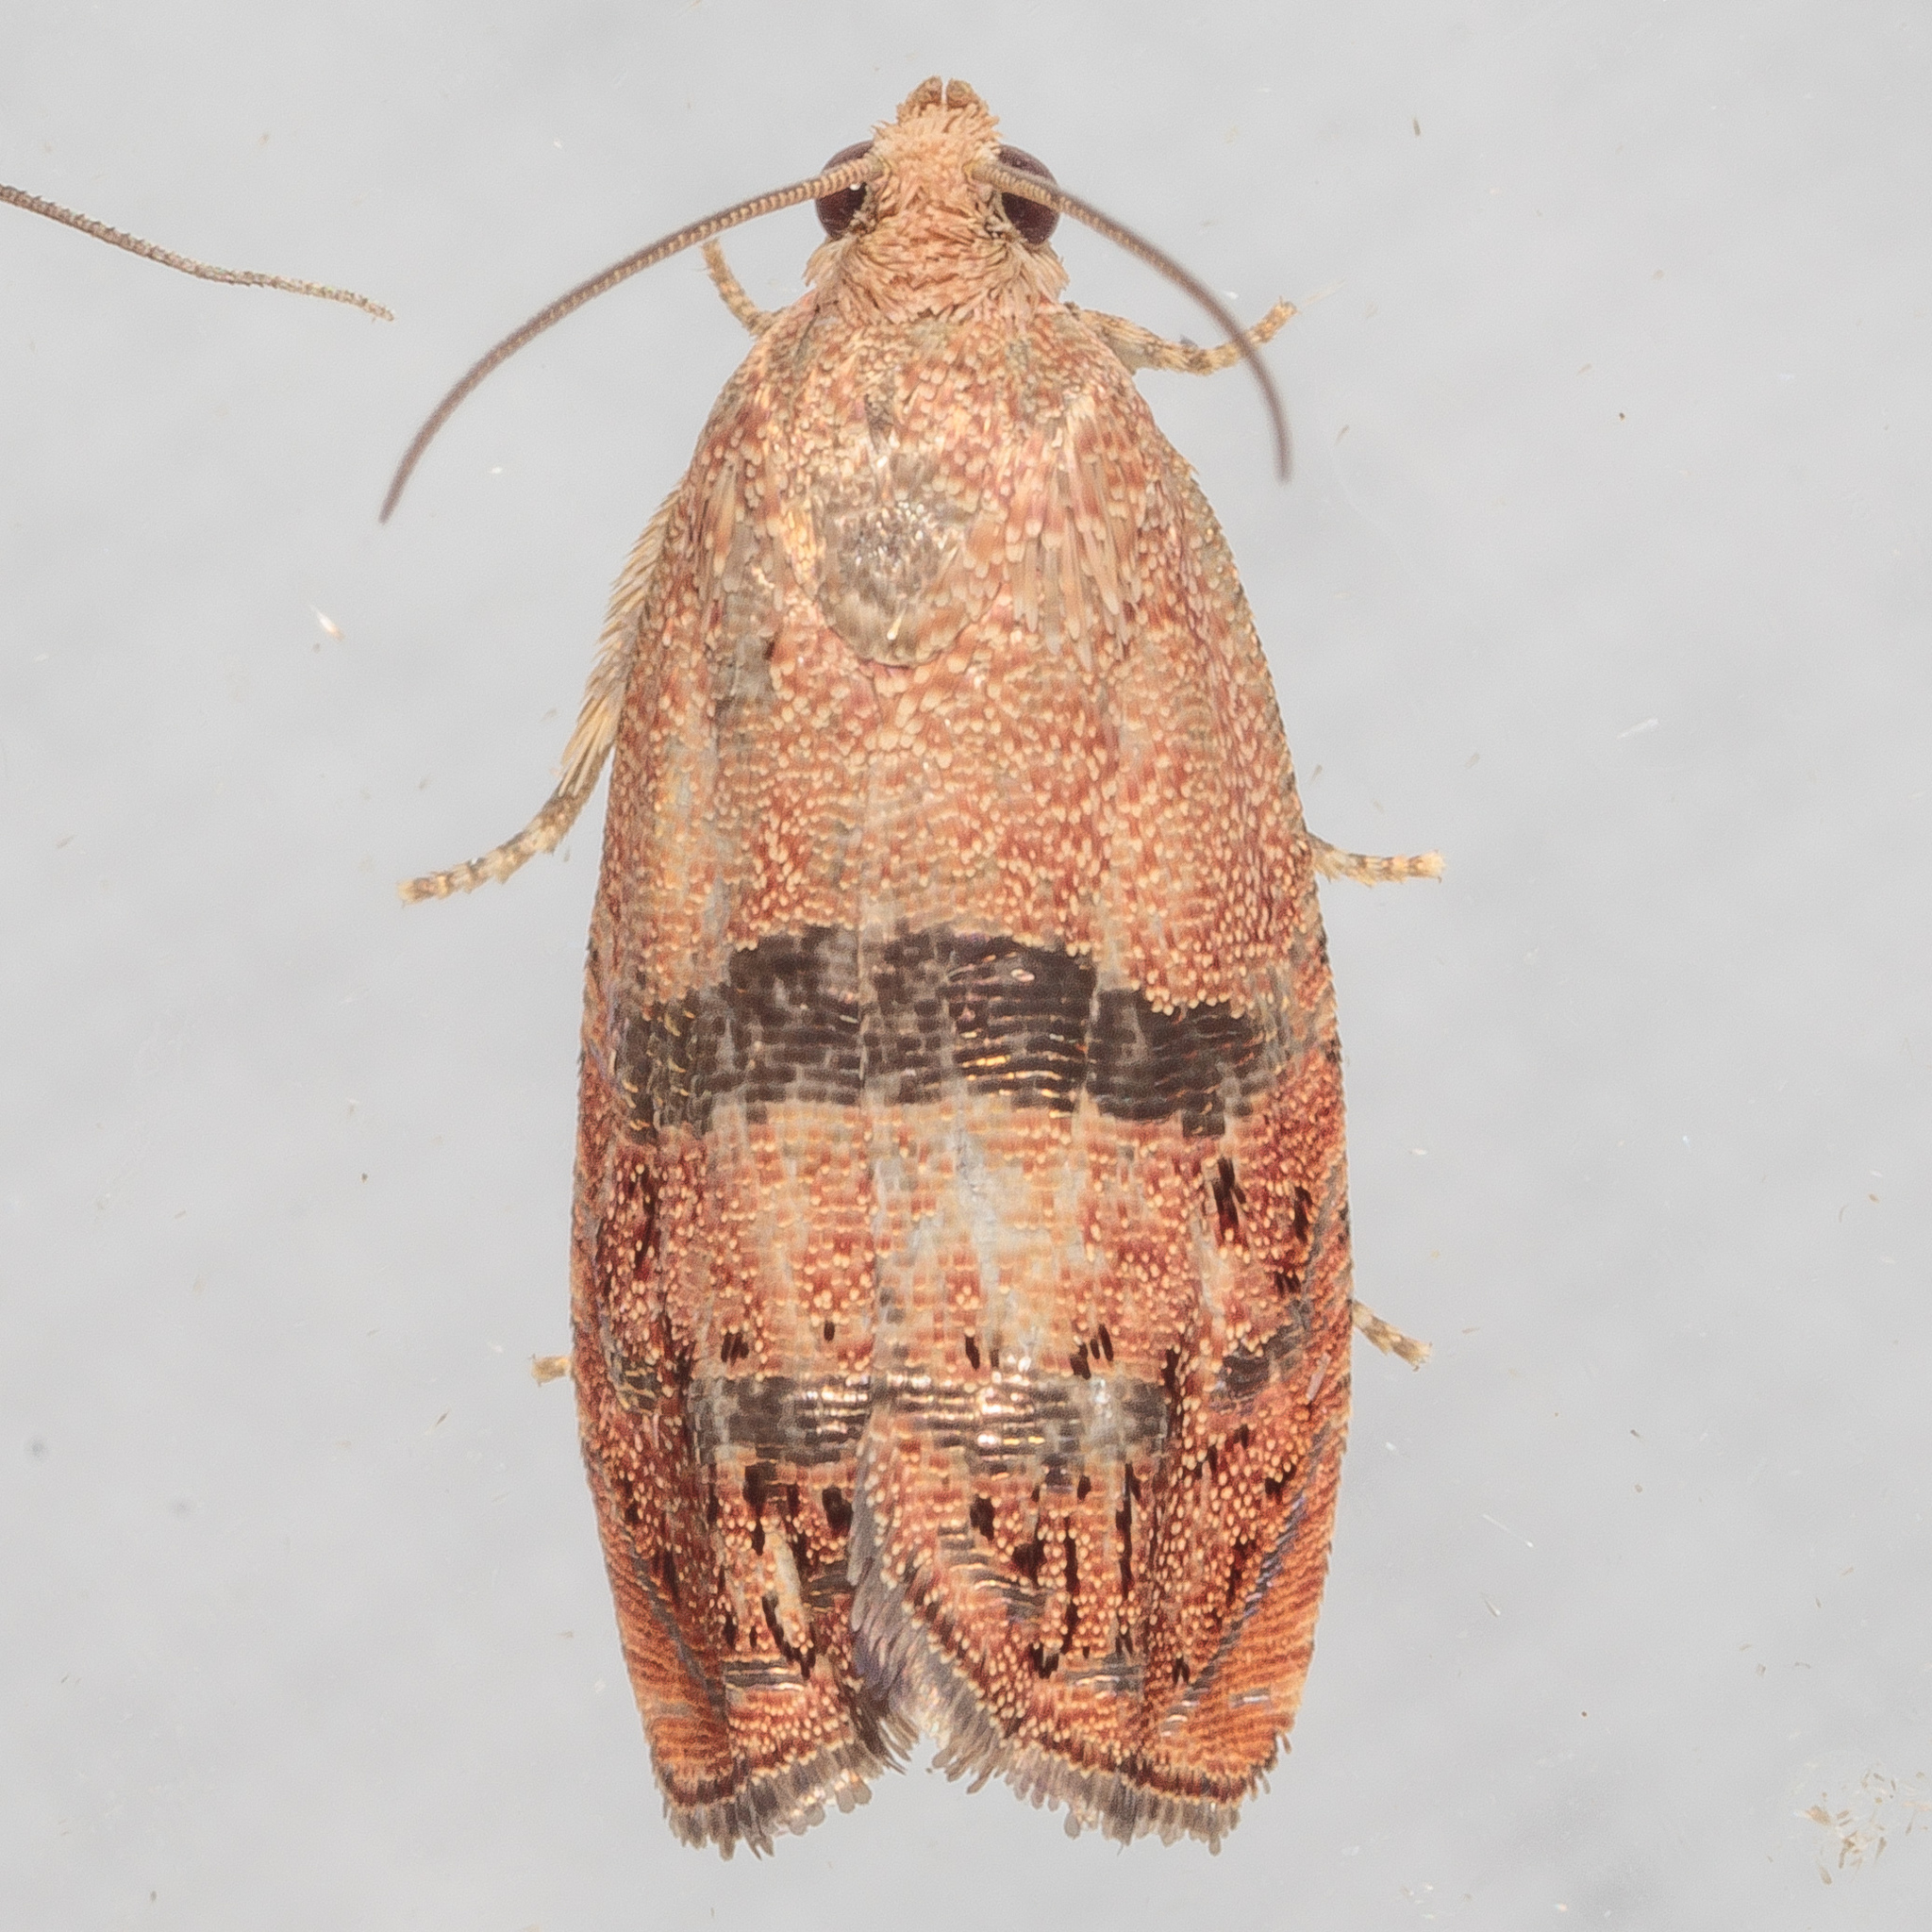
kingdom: Animalia
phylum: Arthropoda
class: Insecta
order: Lepidoptera
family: Tortricidae
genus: Cydia
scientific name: Cydia latiferreana
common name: Filbertworm moth
